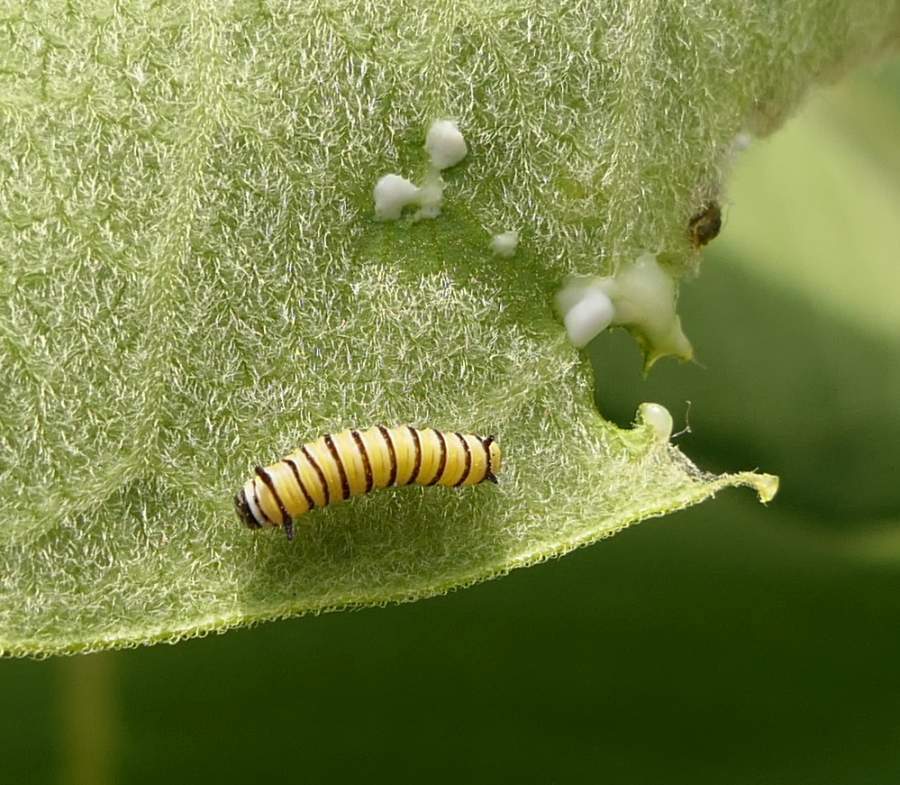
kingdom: Animalia
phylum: Arthropoda
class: Insecta
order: Lepidoptera
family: Nymphalidae
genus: Danaus
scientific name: Danaus plexippus
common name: Monarch
